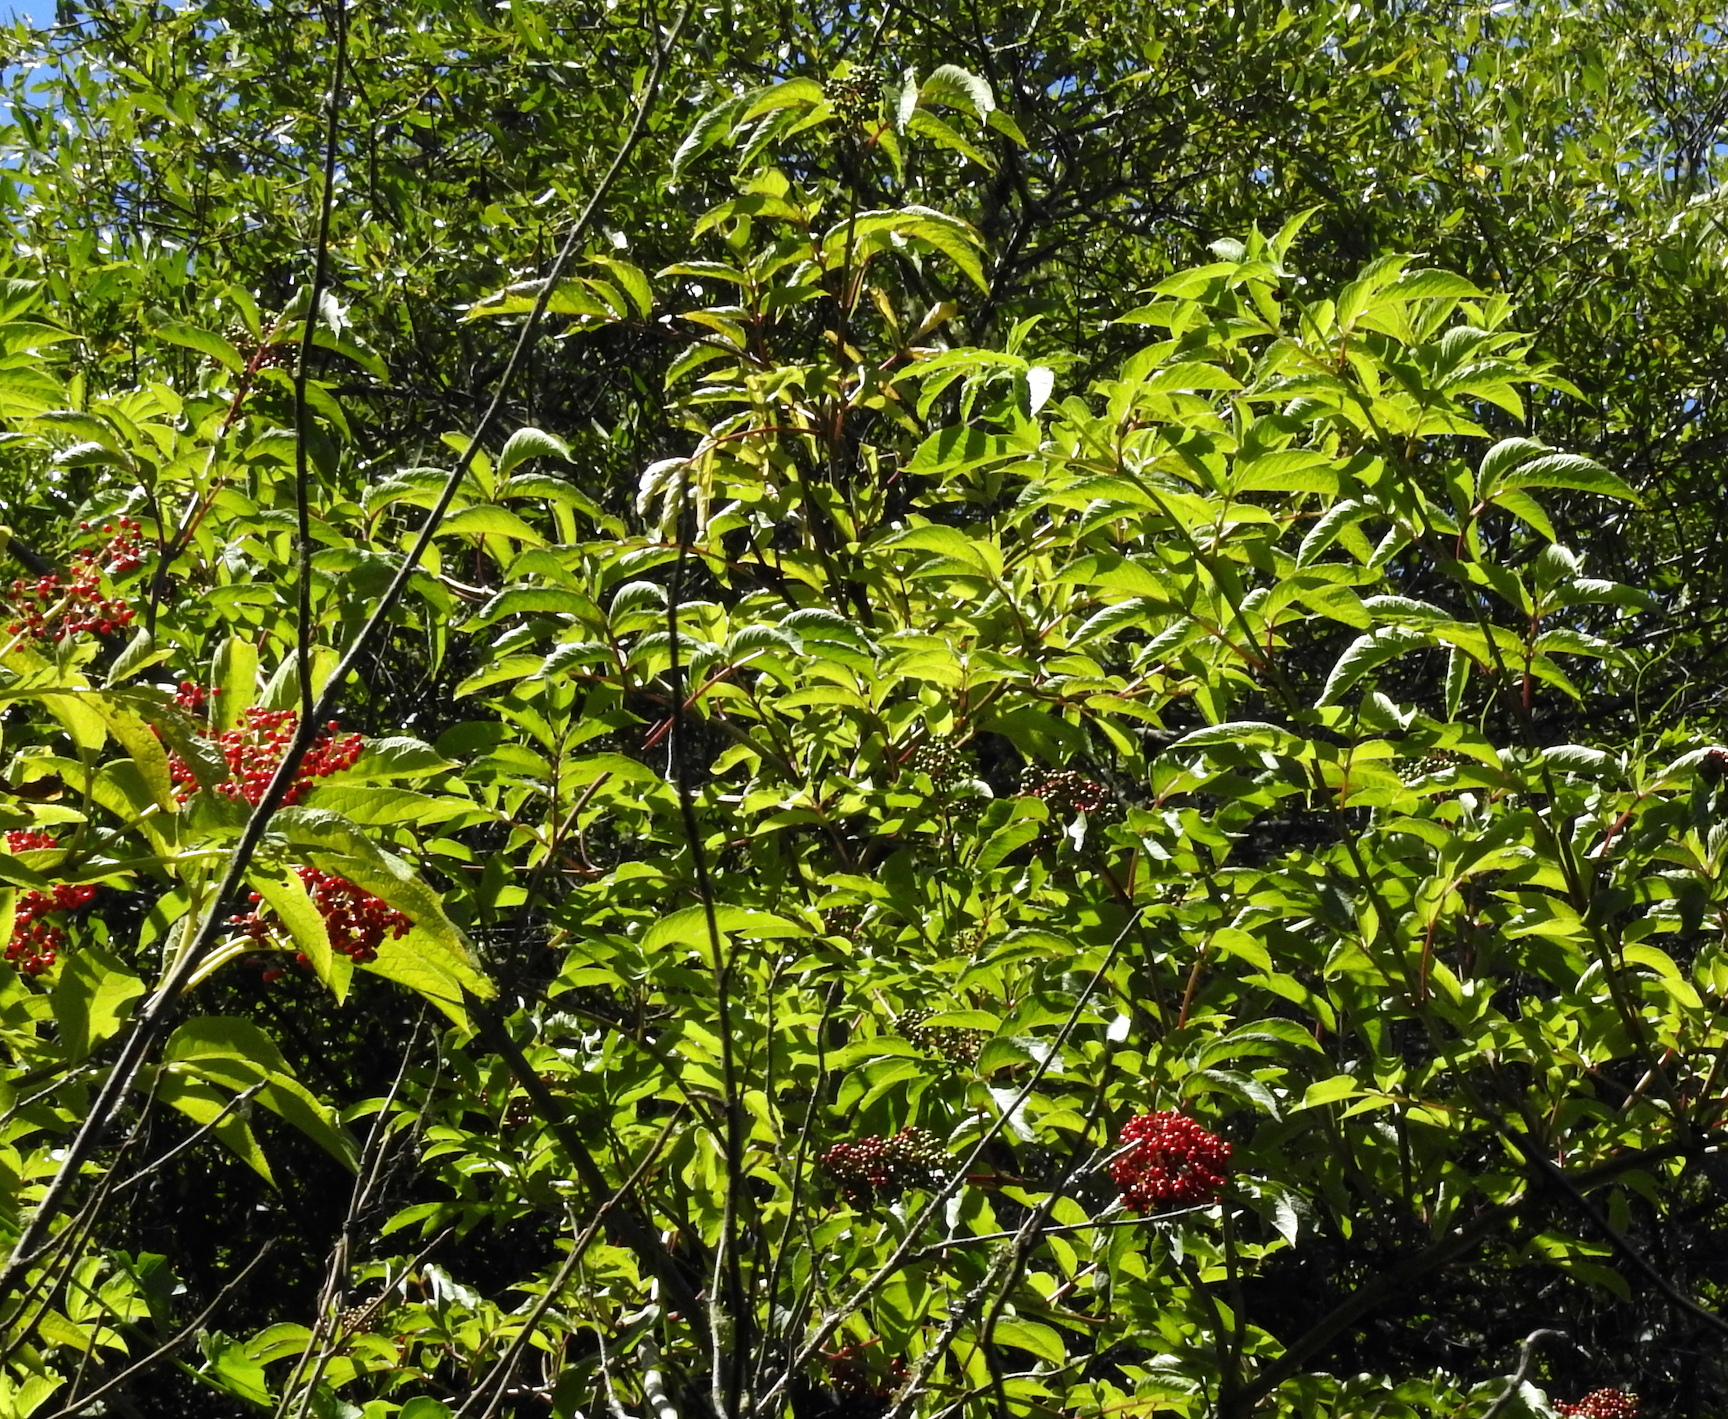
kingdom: Plantae
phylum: Tracheophyta
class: Magnoliopsida
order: Dipsacales
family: Viburnaceae
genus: Sambucus
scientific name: Sambucus racemosa
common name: Red-berried elder
